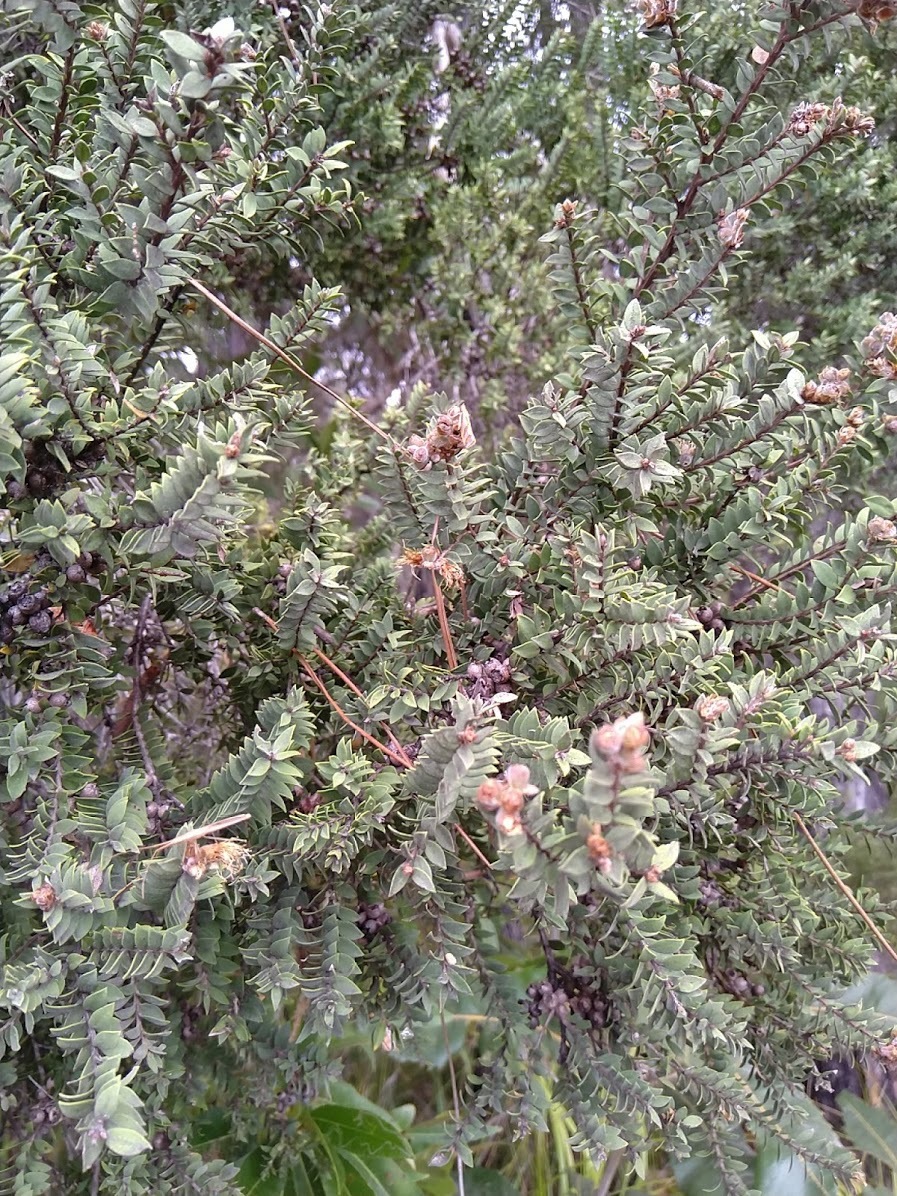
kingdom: Plantae
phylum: Tracheophyta
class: Magnoliopsida
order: Myrtales
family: Myrtaceae
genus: Melaleuca
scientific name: Melaleuca cheelii
